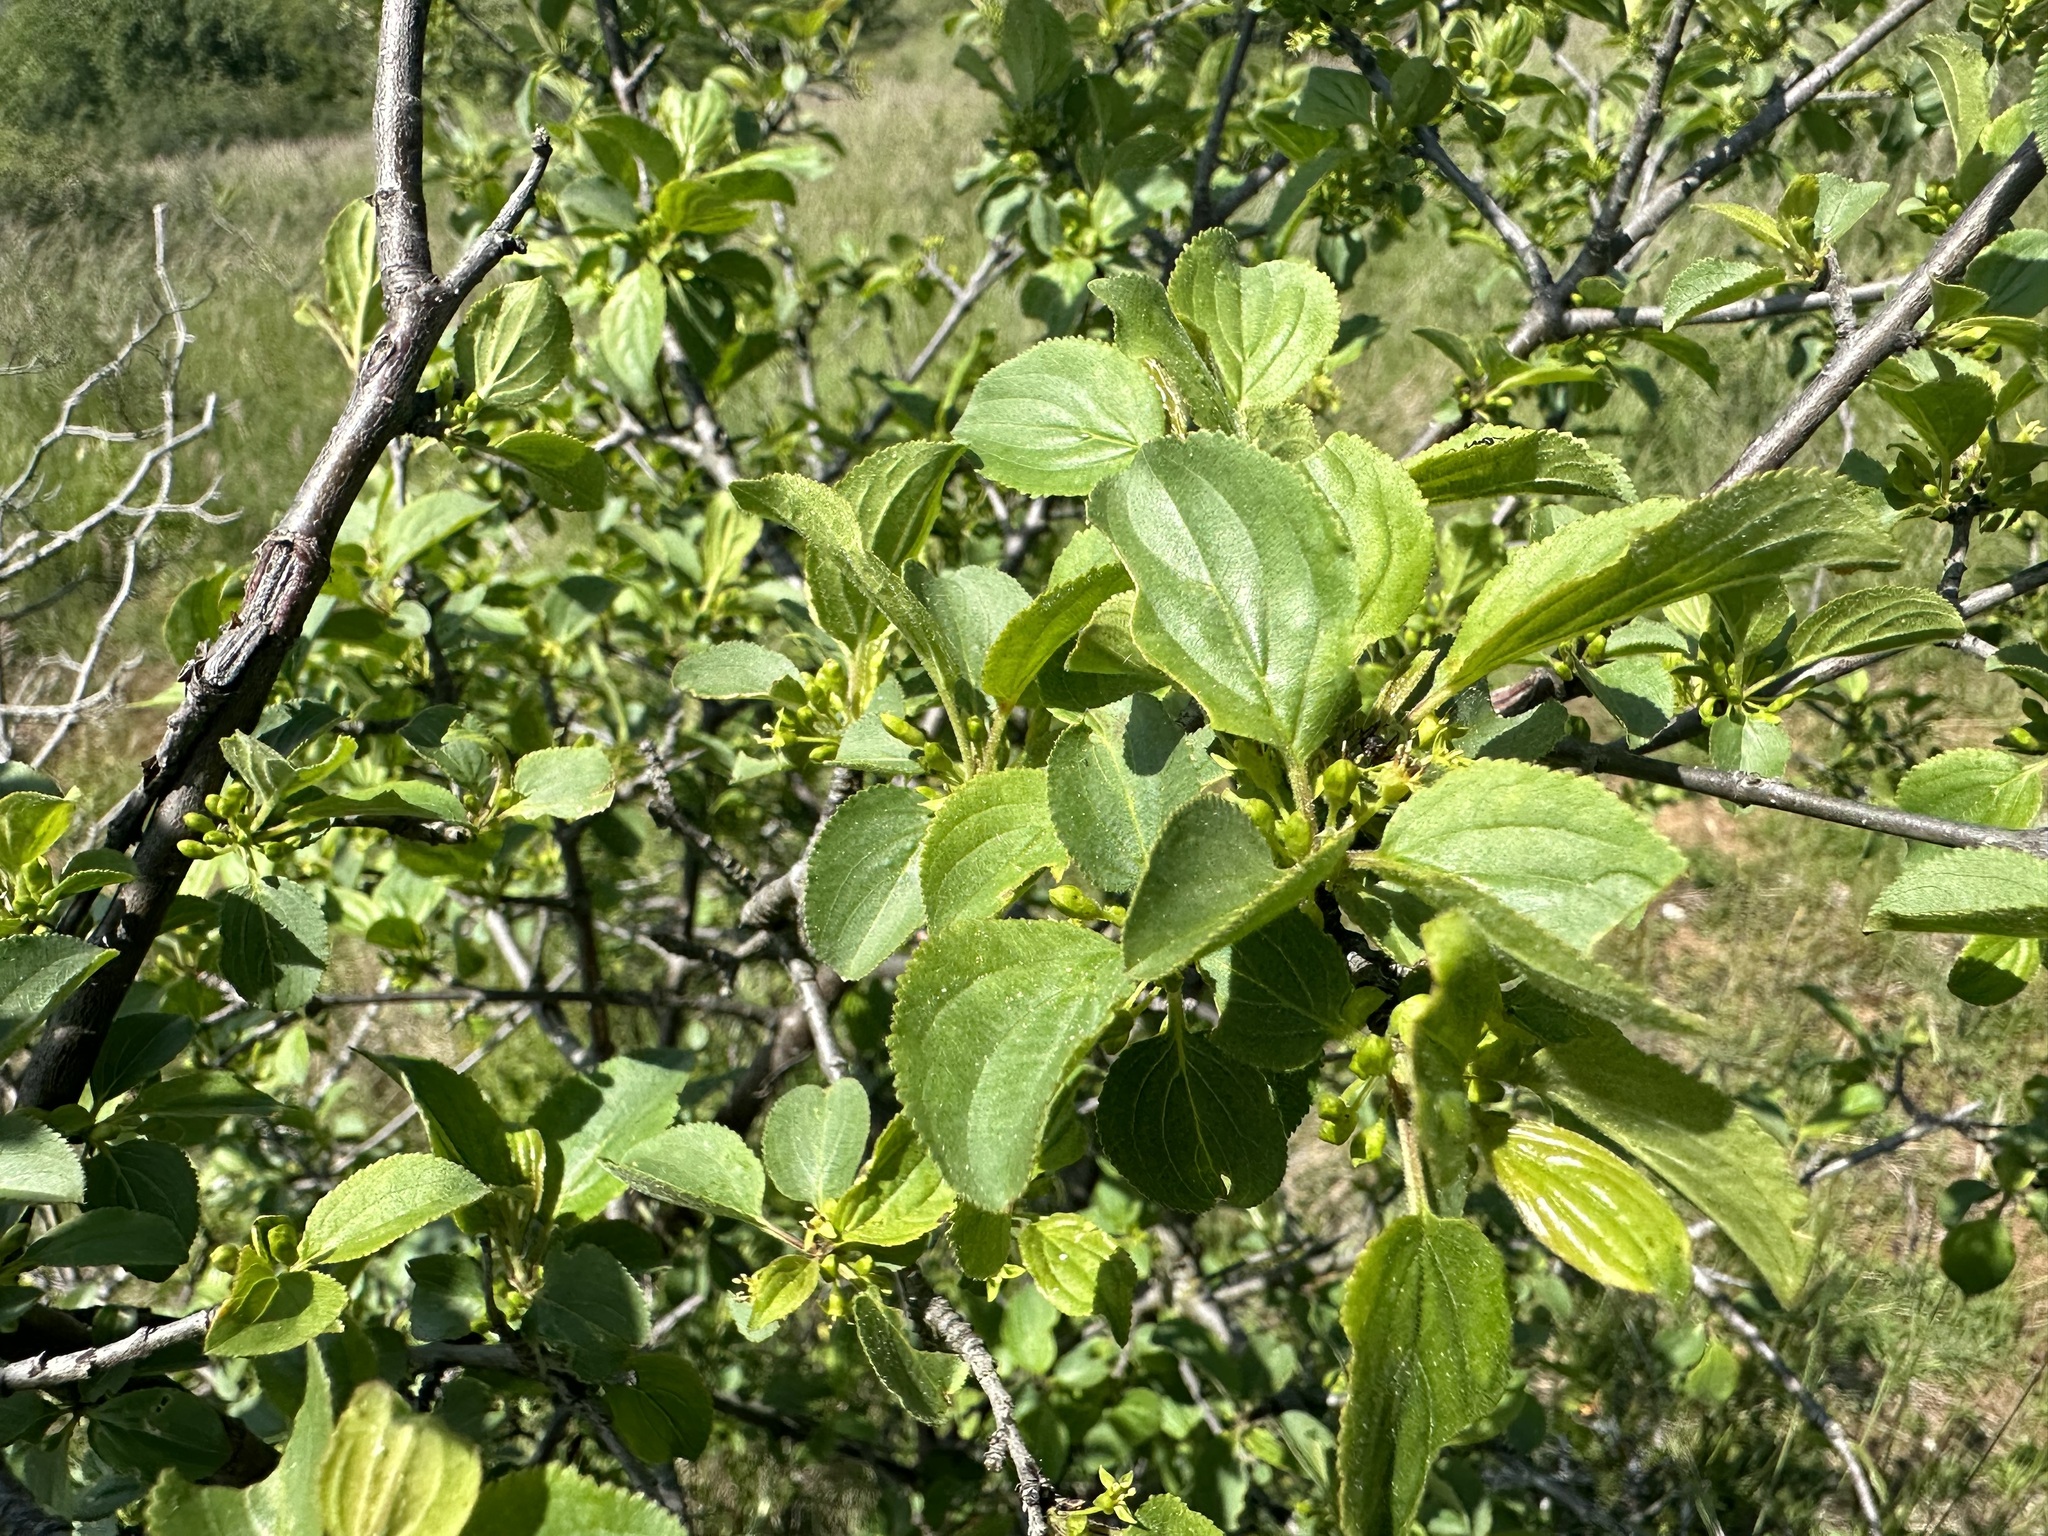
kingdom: Plantae
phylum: Tracheophyta
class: Magnoliopsida
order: Rosales
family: Rhamnaceae
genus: Rhamnus
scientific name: Rhamnus cathartica
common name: Common buckthorn
